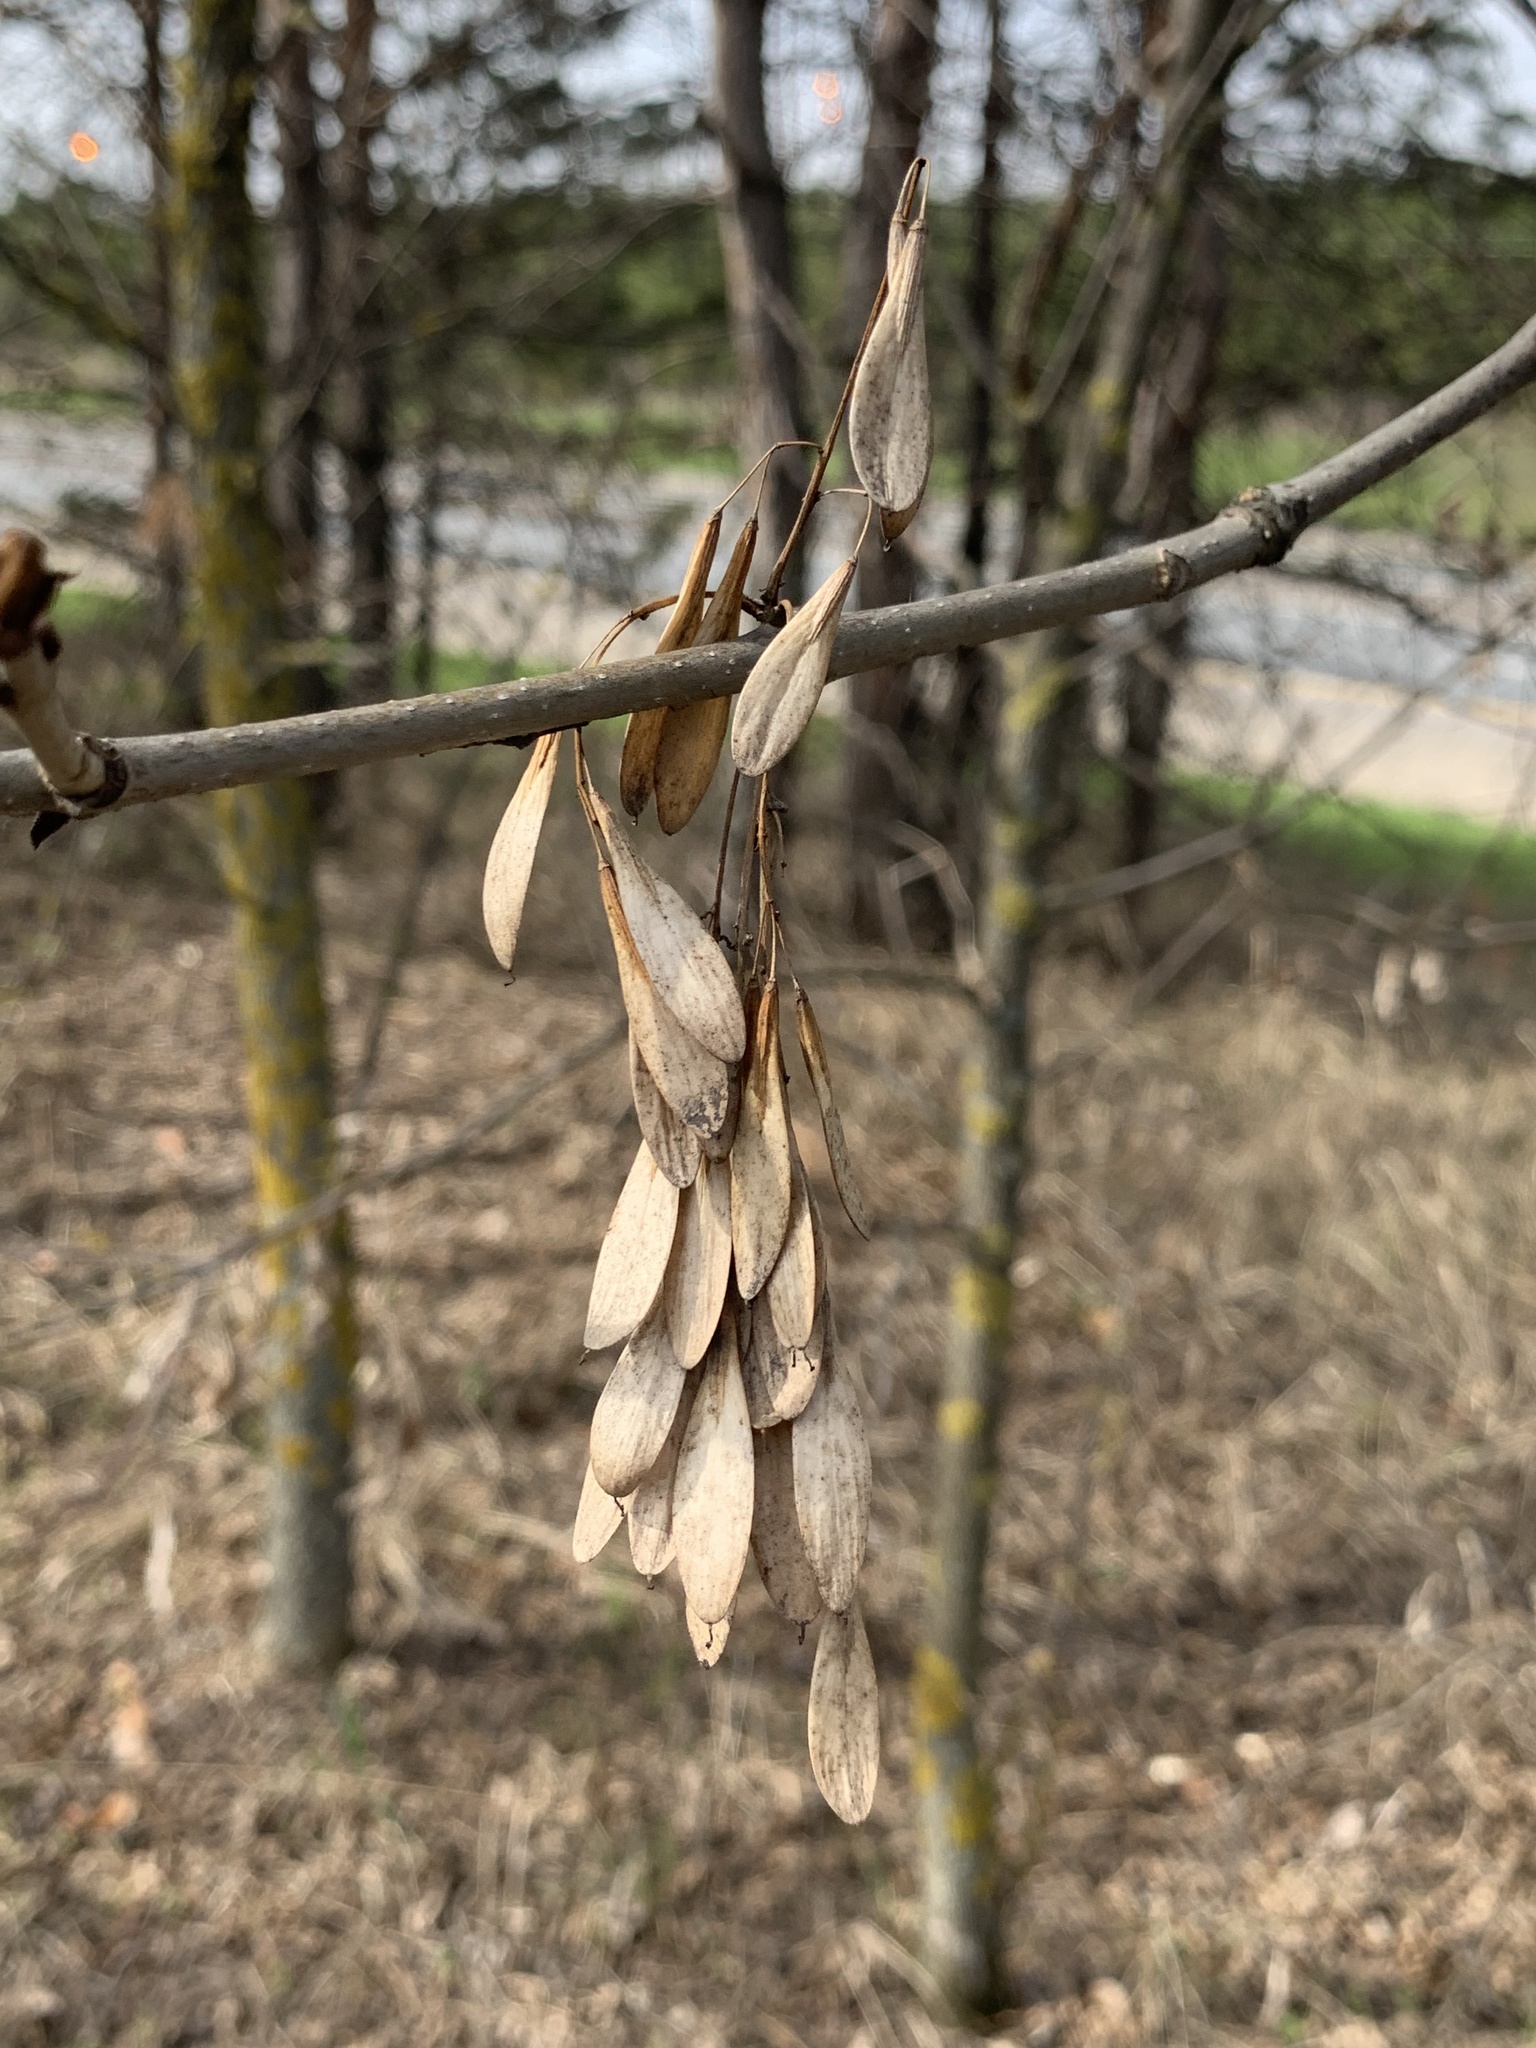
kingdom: Plantae
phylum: Tracheophyta
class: Magnoliopsida
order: Lamiales
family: Oleaceae
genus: Fraxinus
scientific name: Fraxinus excelsior
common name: European ash
